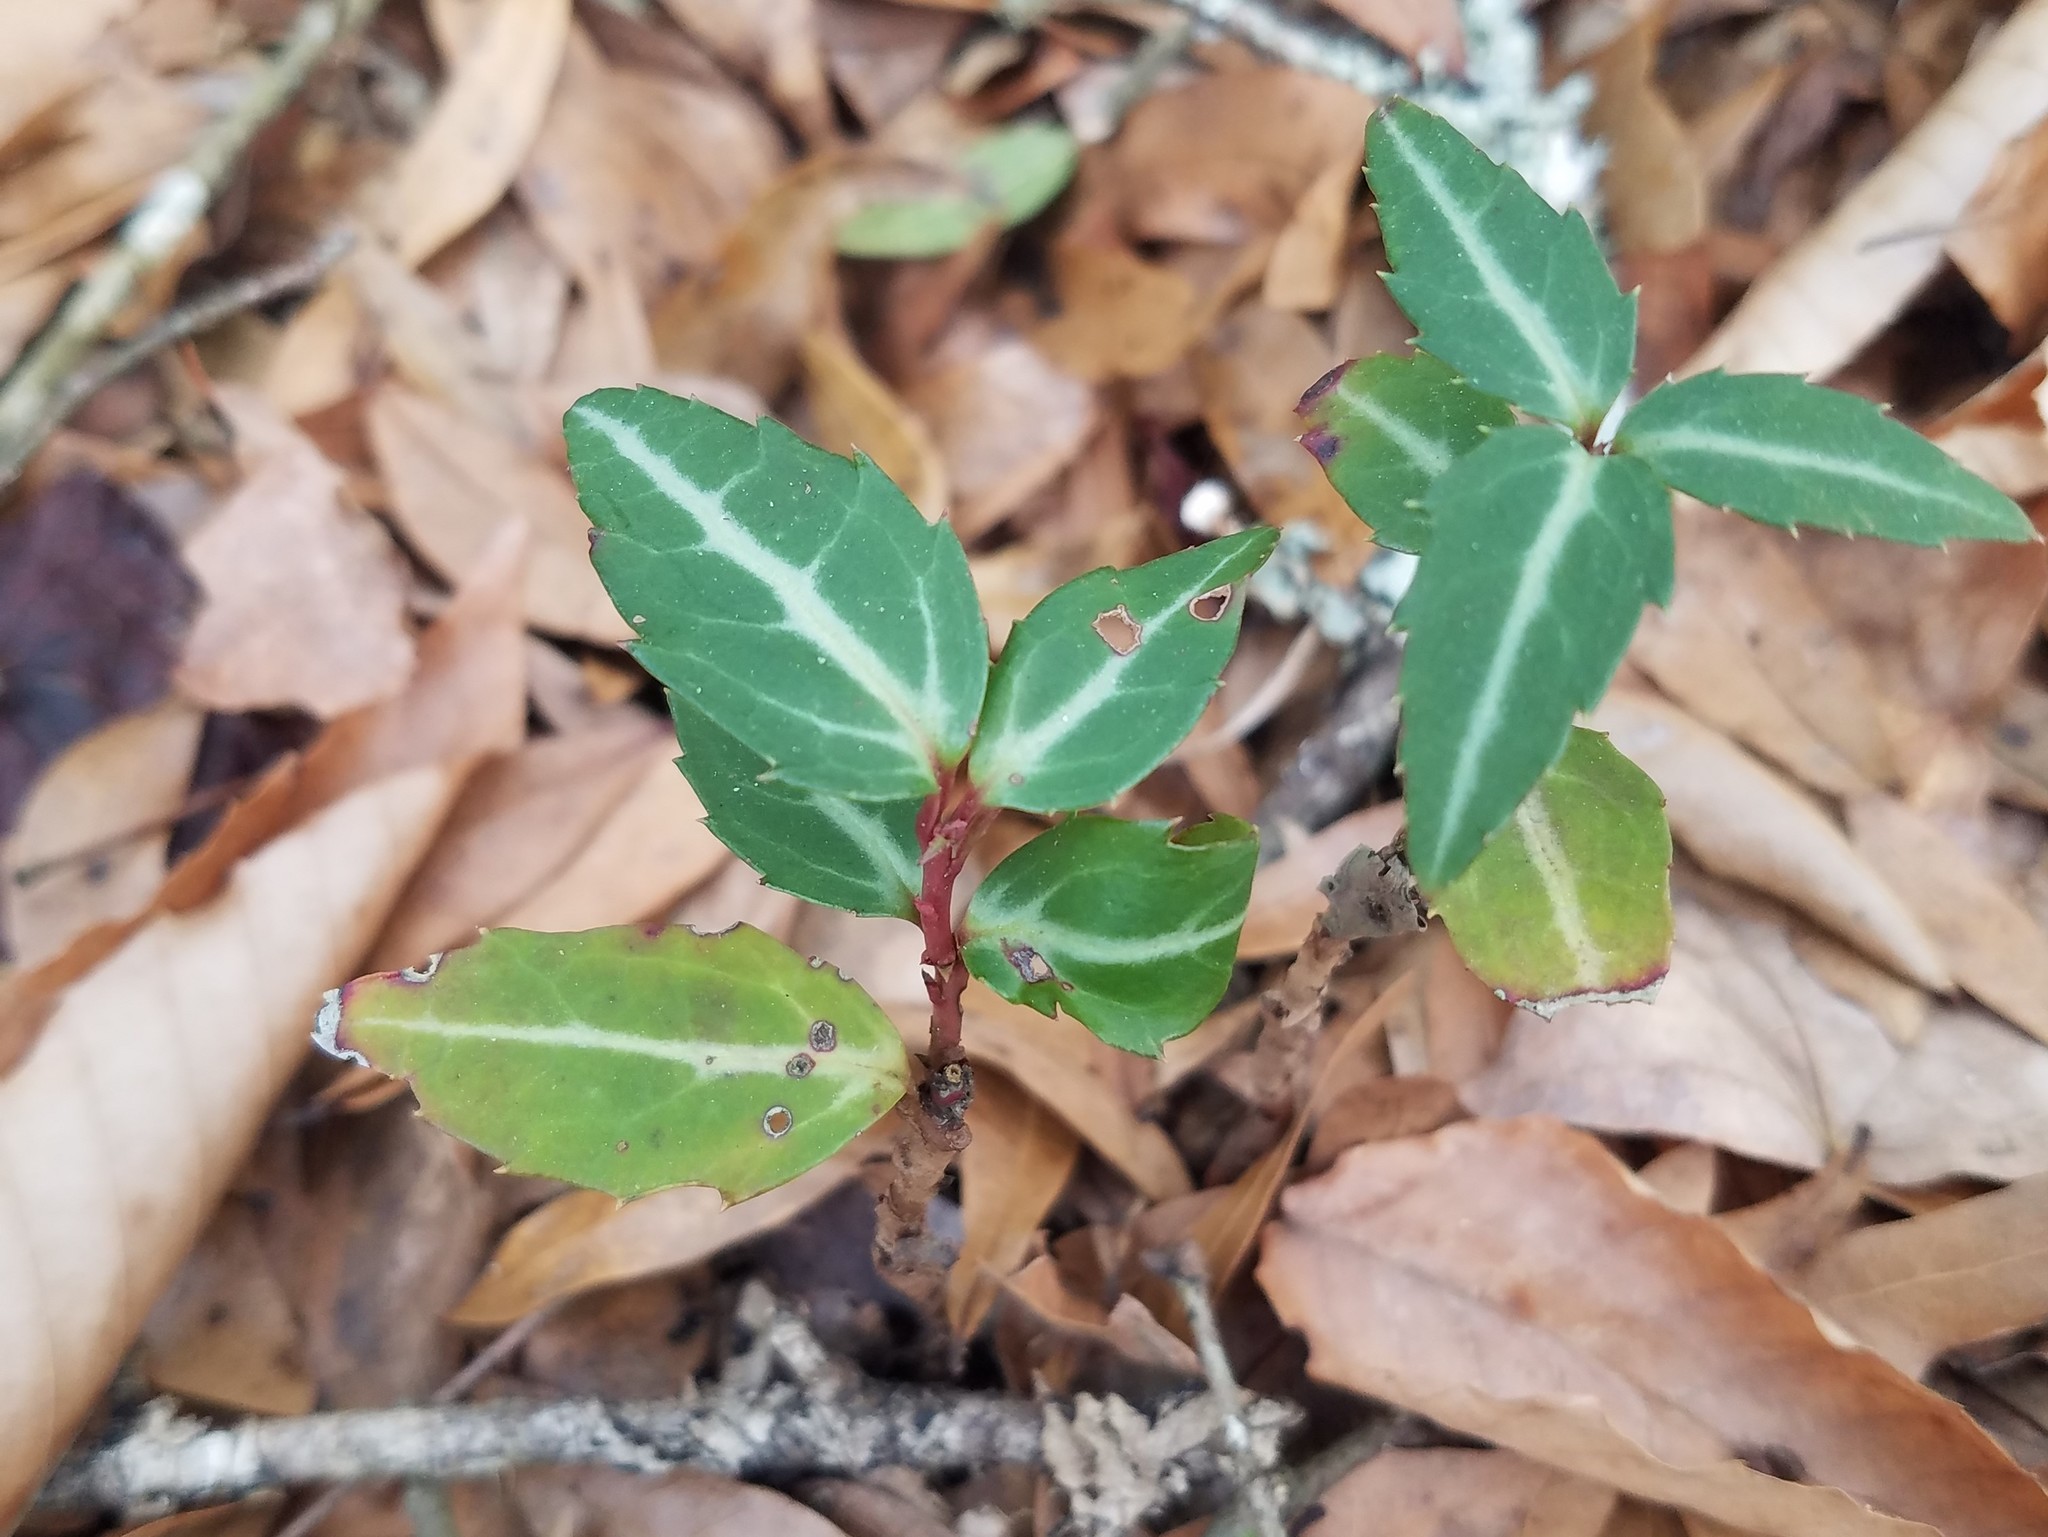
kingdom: Plantae
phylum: Tracheophyta
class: Magnoliopsida
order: Ericales
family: Ericaceae
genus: Chimaphila
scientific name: Chimaphila maculata
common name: Spotted pipsissewa
